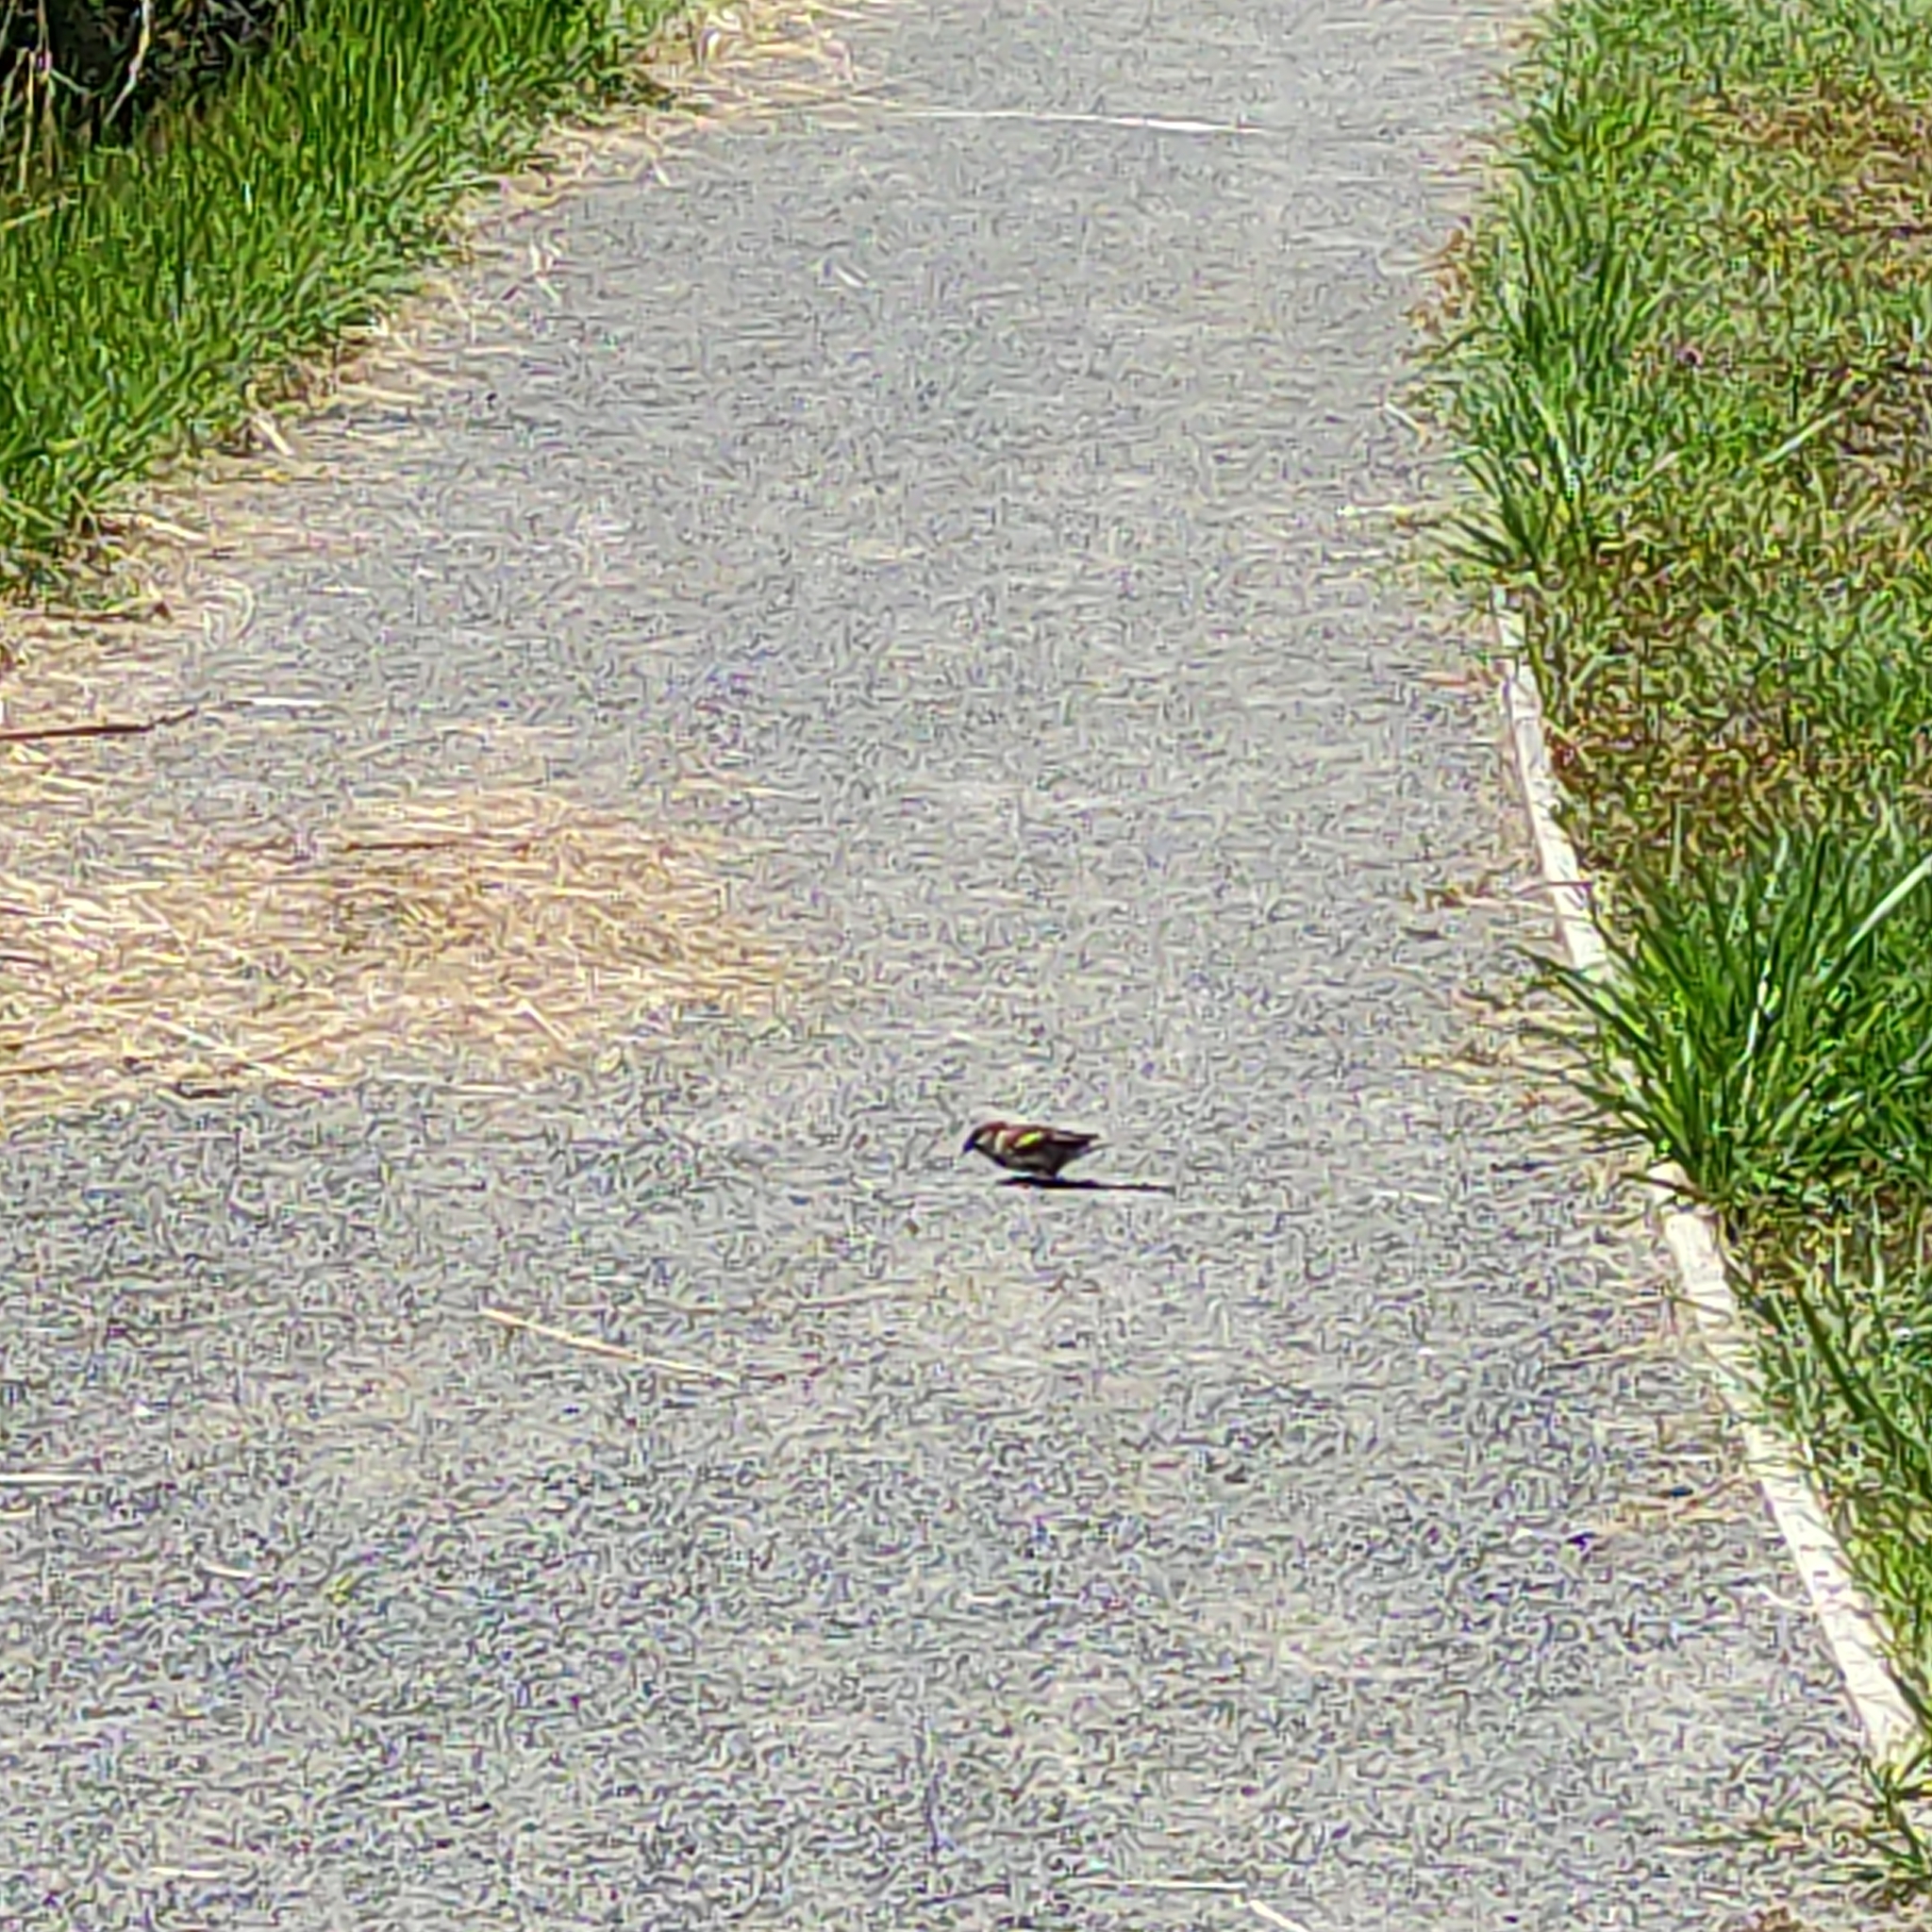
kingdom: Animalia
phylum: Chordata
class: Aves
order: Passeriformes
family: Passeridae
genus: Passer
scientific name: Passer domesticus
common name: House sparrow
